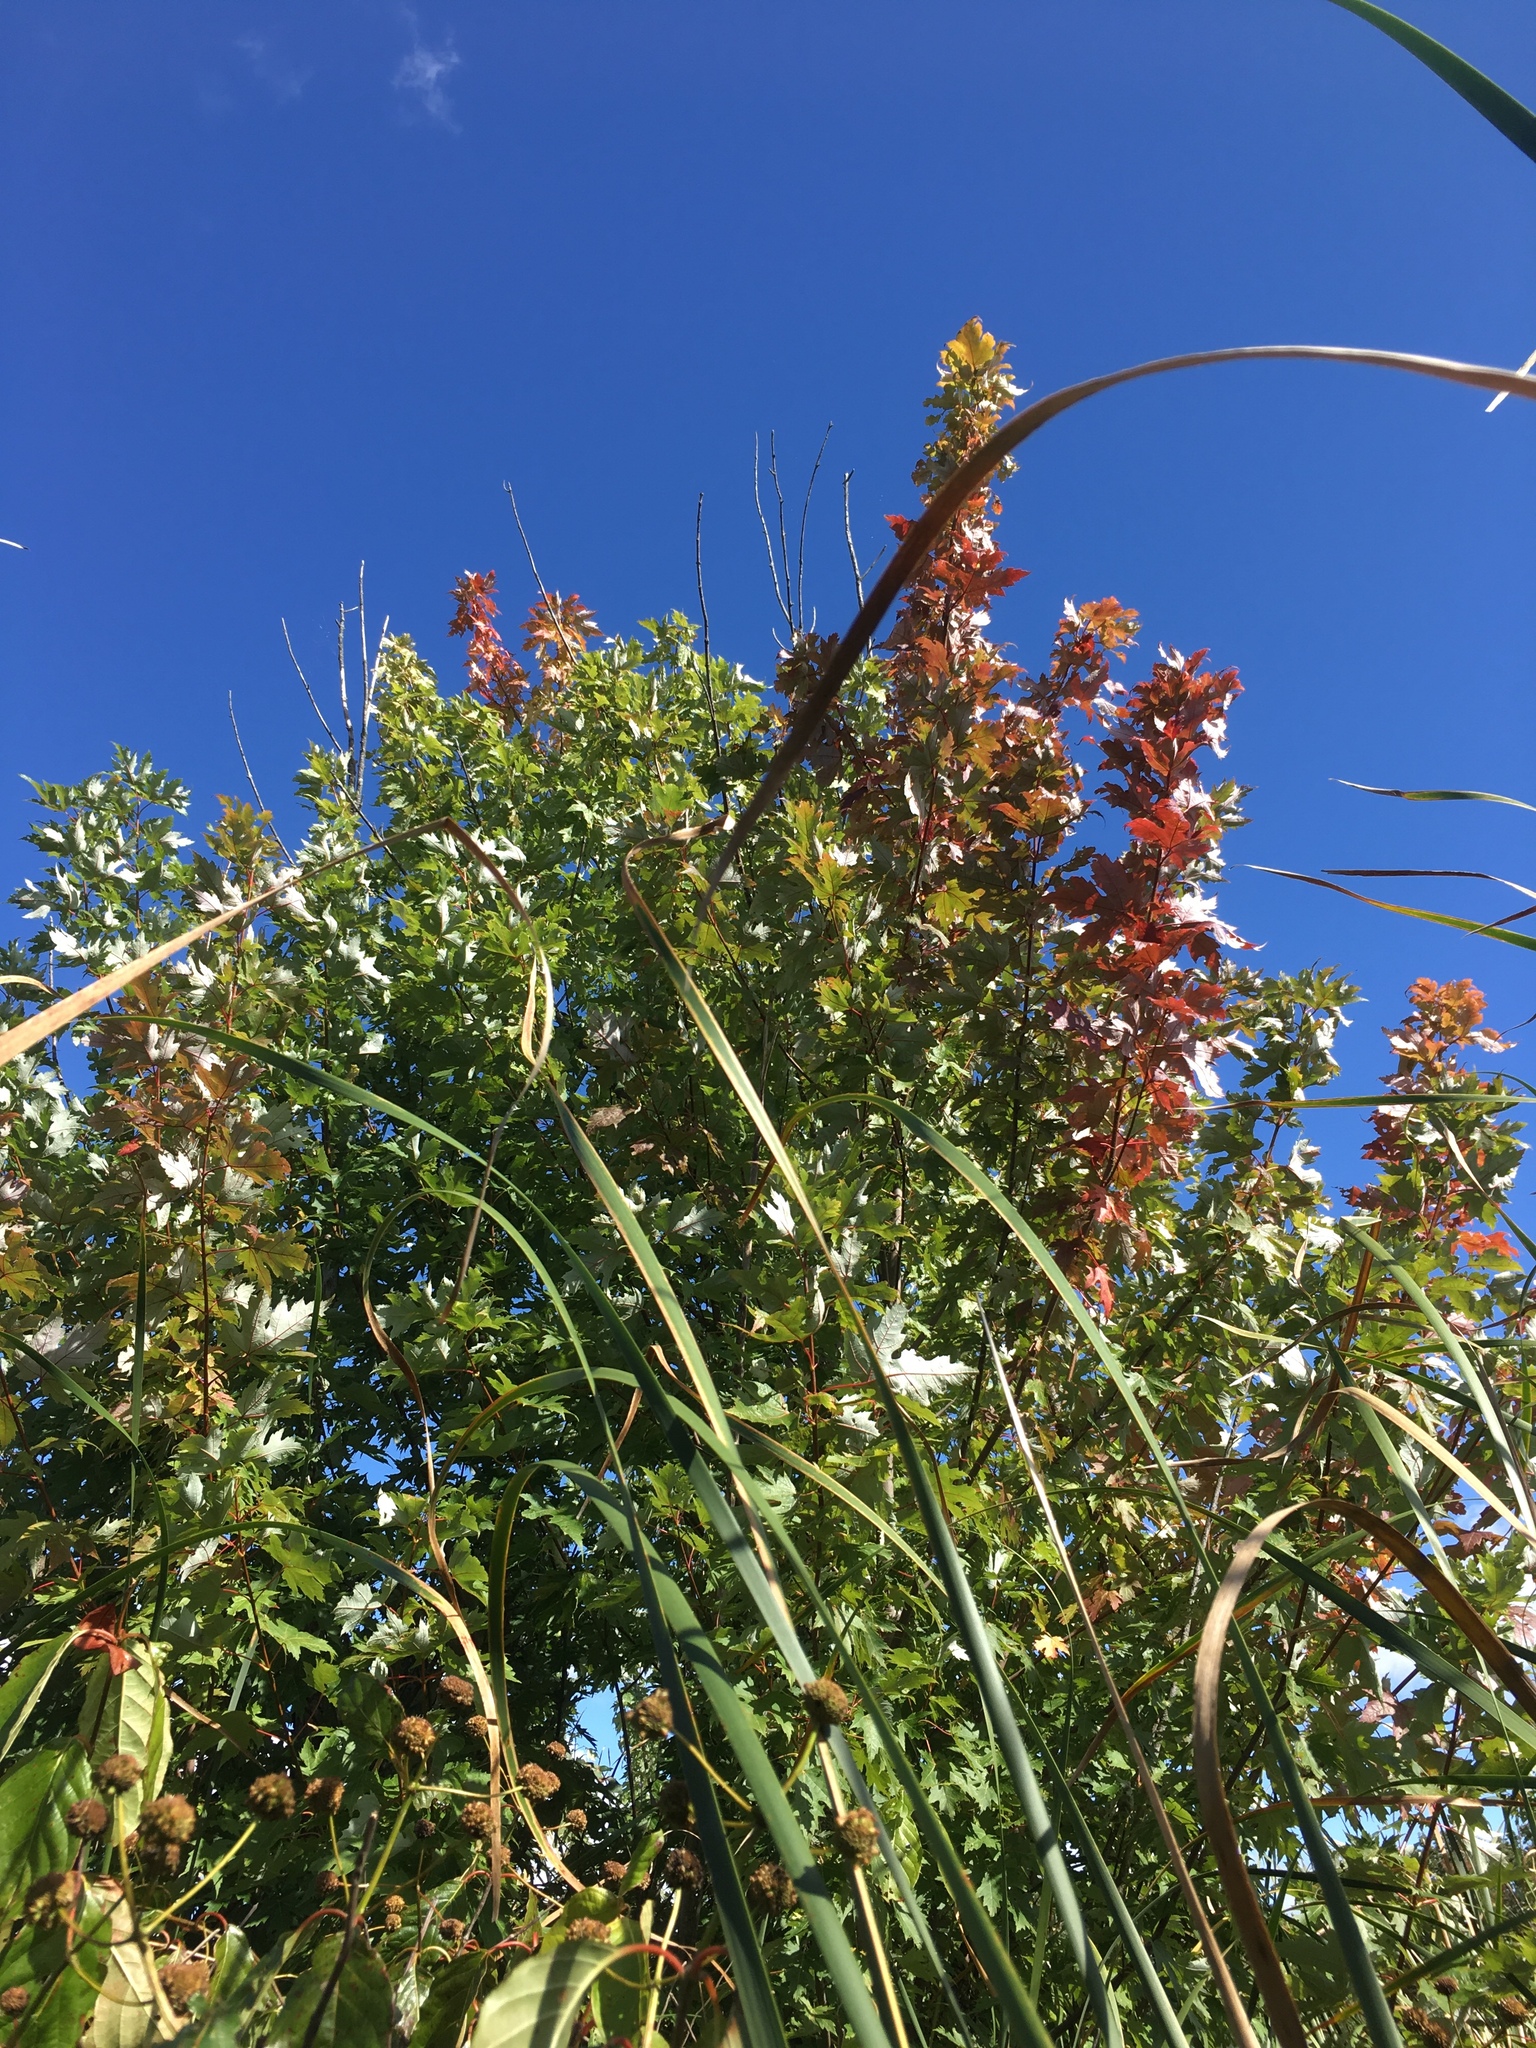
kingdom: Plantae
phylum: Tracheophyta
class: Magnoliopsida
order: Sapindales
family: Sapindaceae
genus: Acer
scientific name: Acer saccharinum
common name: Silver maple
